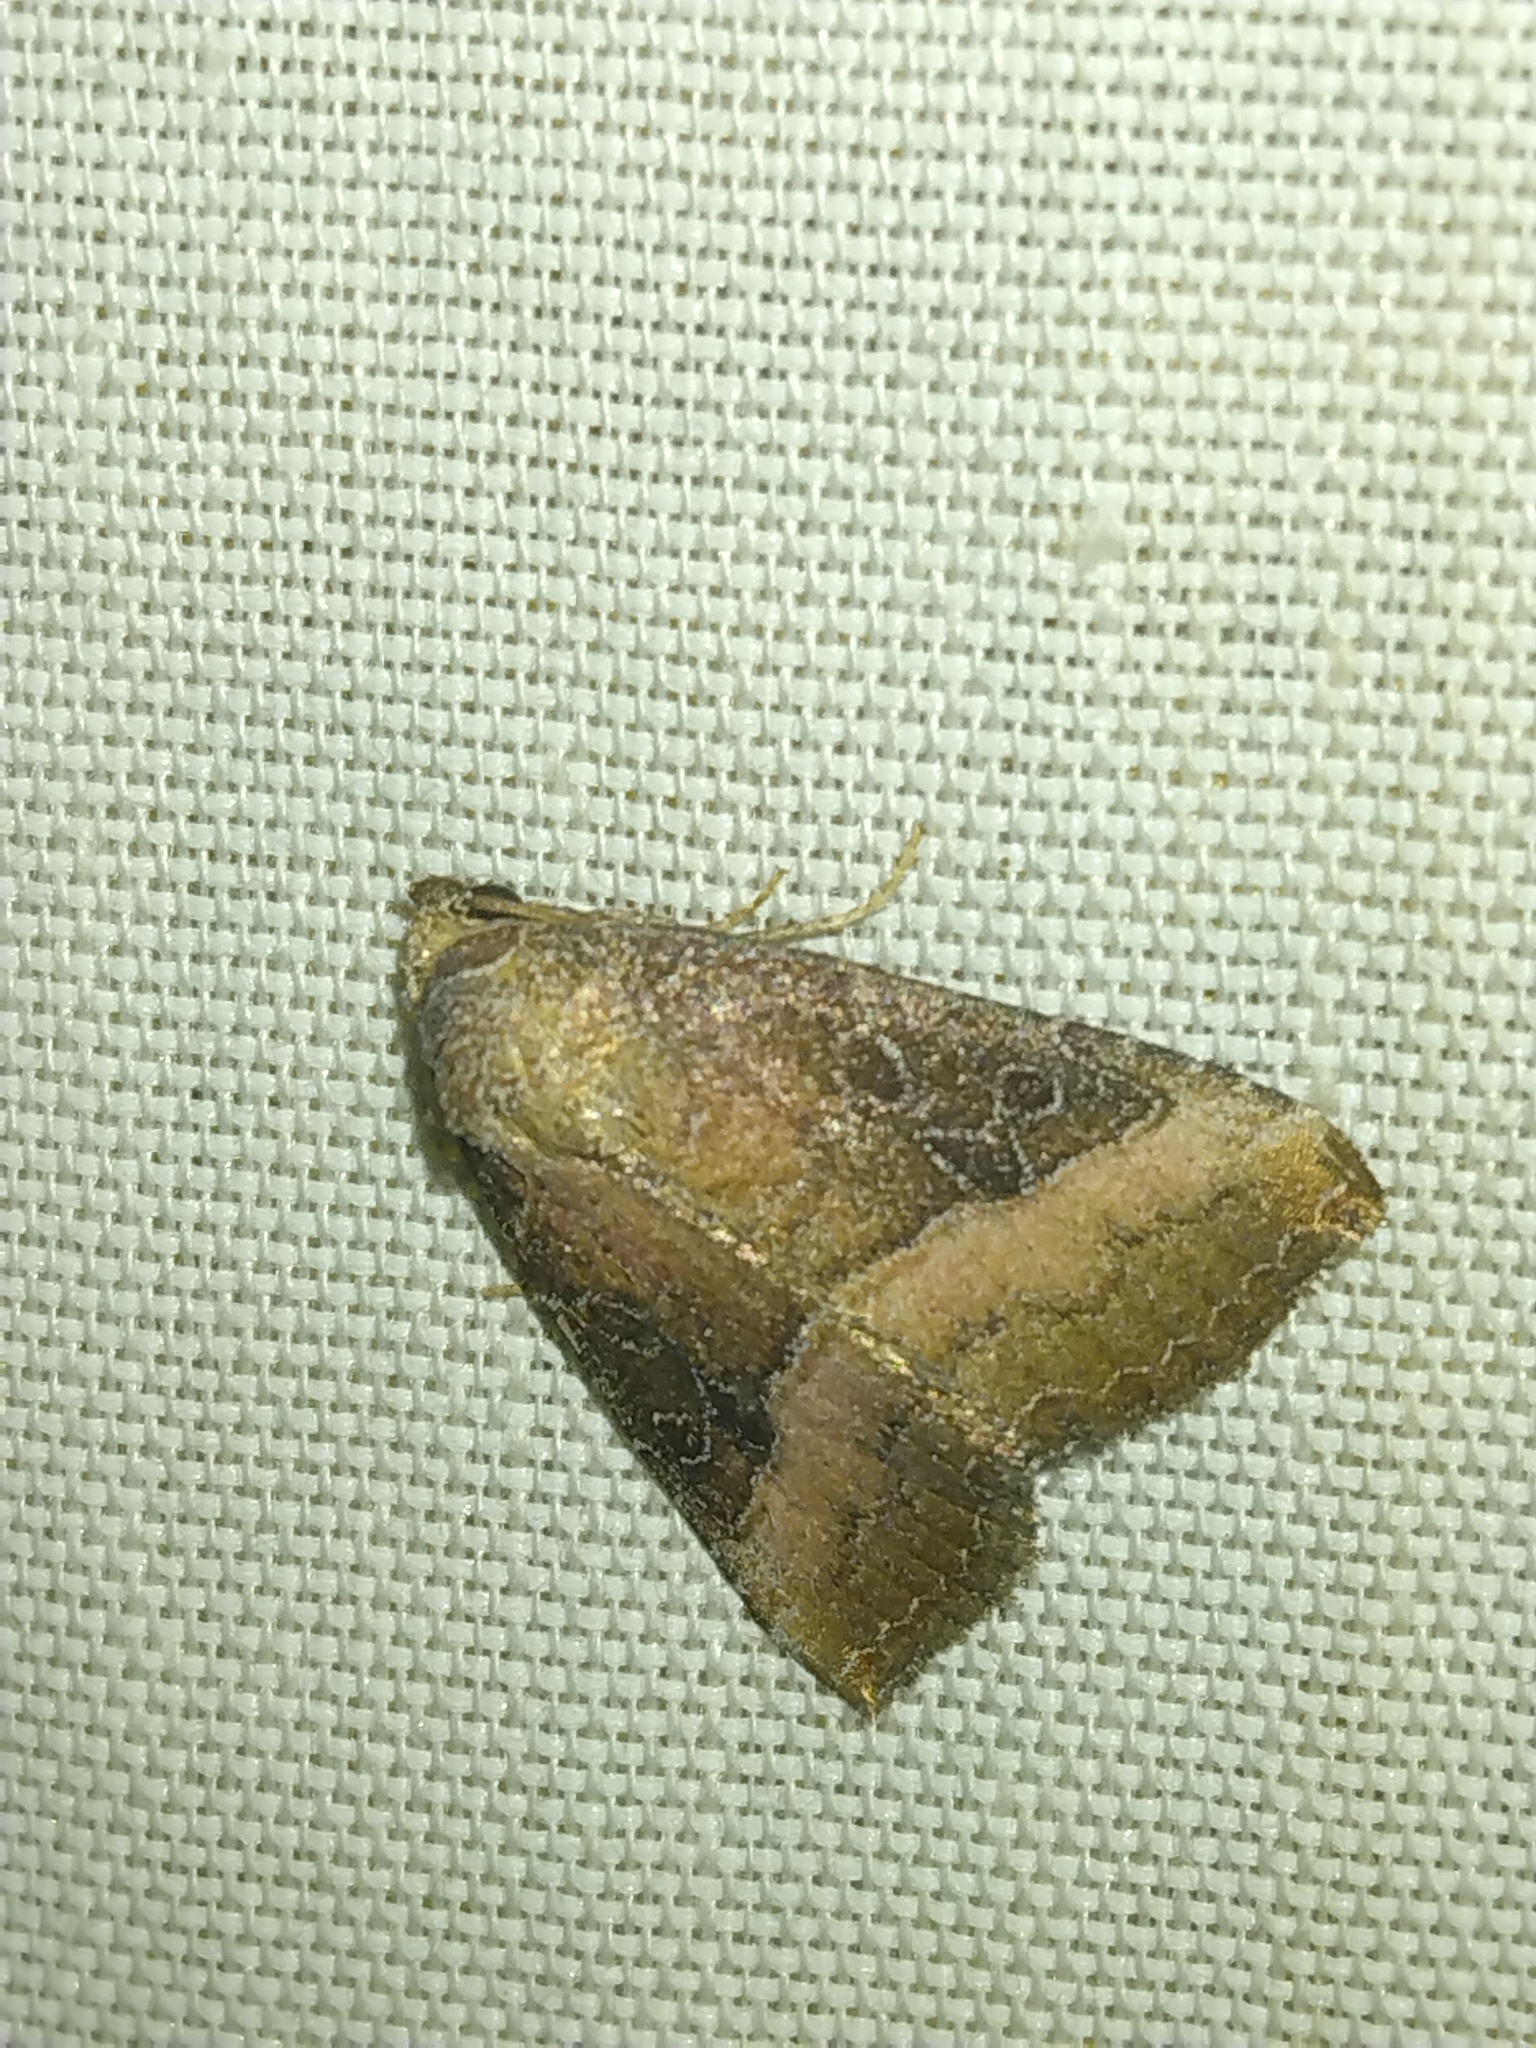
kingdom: Animalia
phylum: Arthropoda
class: Insecta
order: Lepidoptera
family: Noctuidae
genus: Ogdoconta
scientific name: Ogdoconta cinereola
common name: Common pinkband
